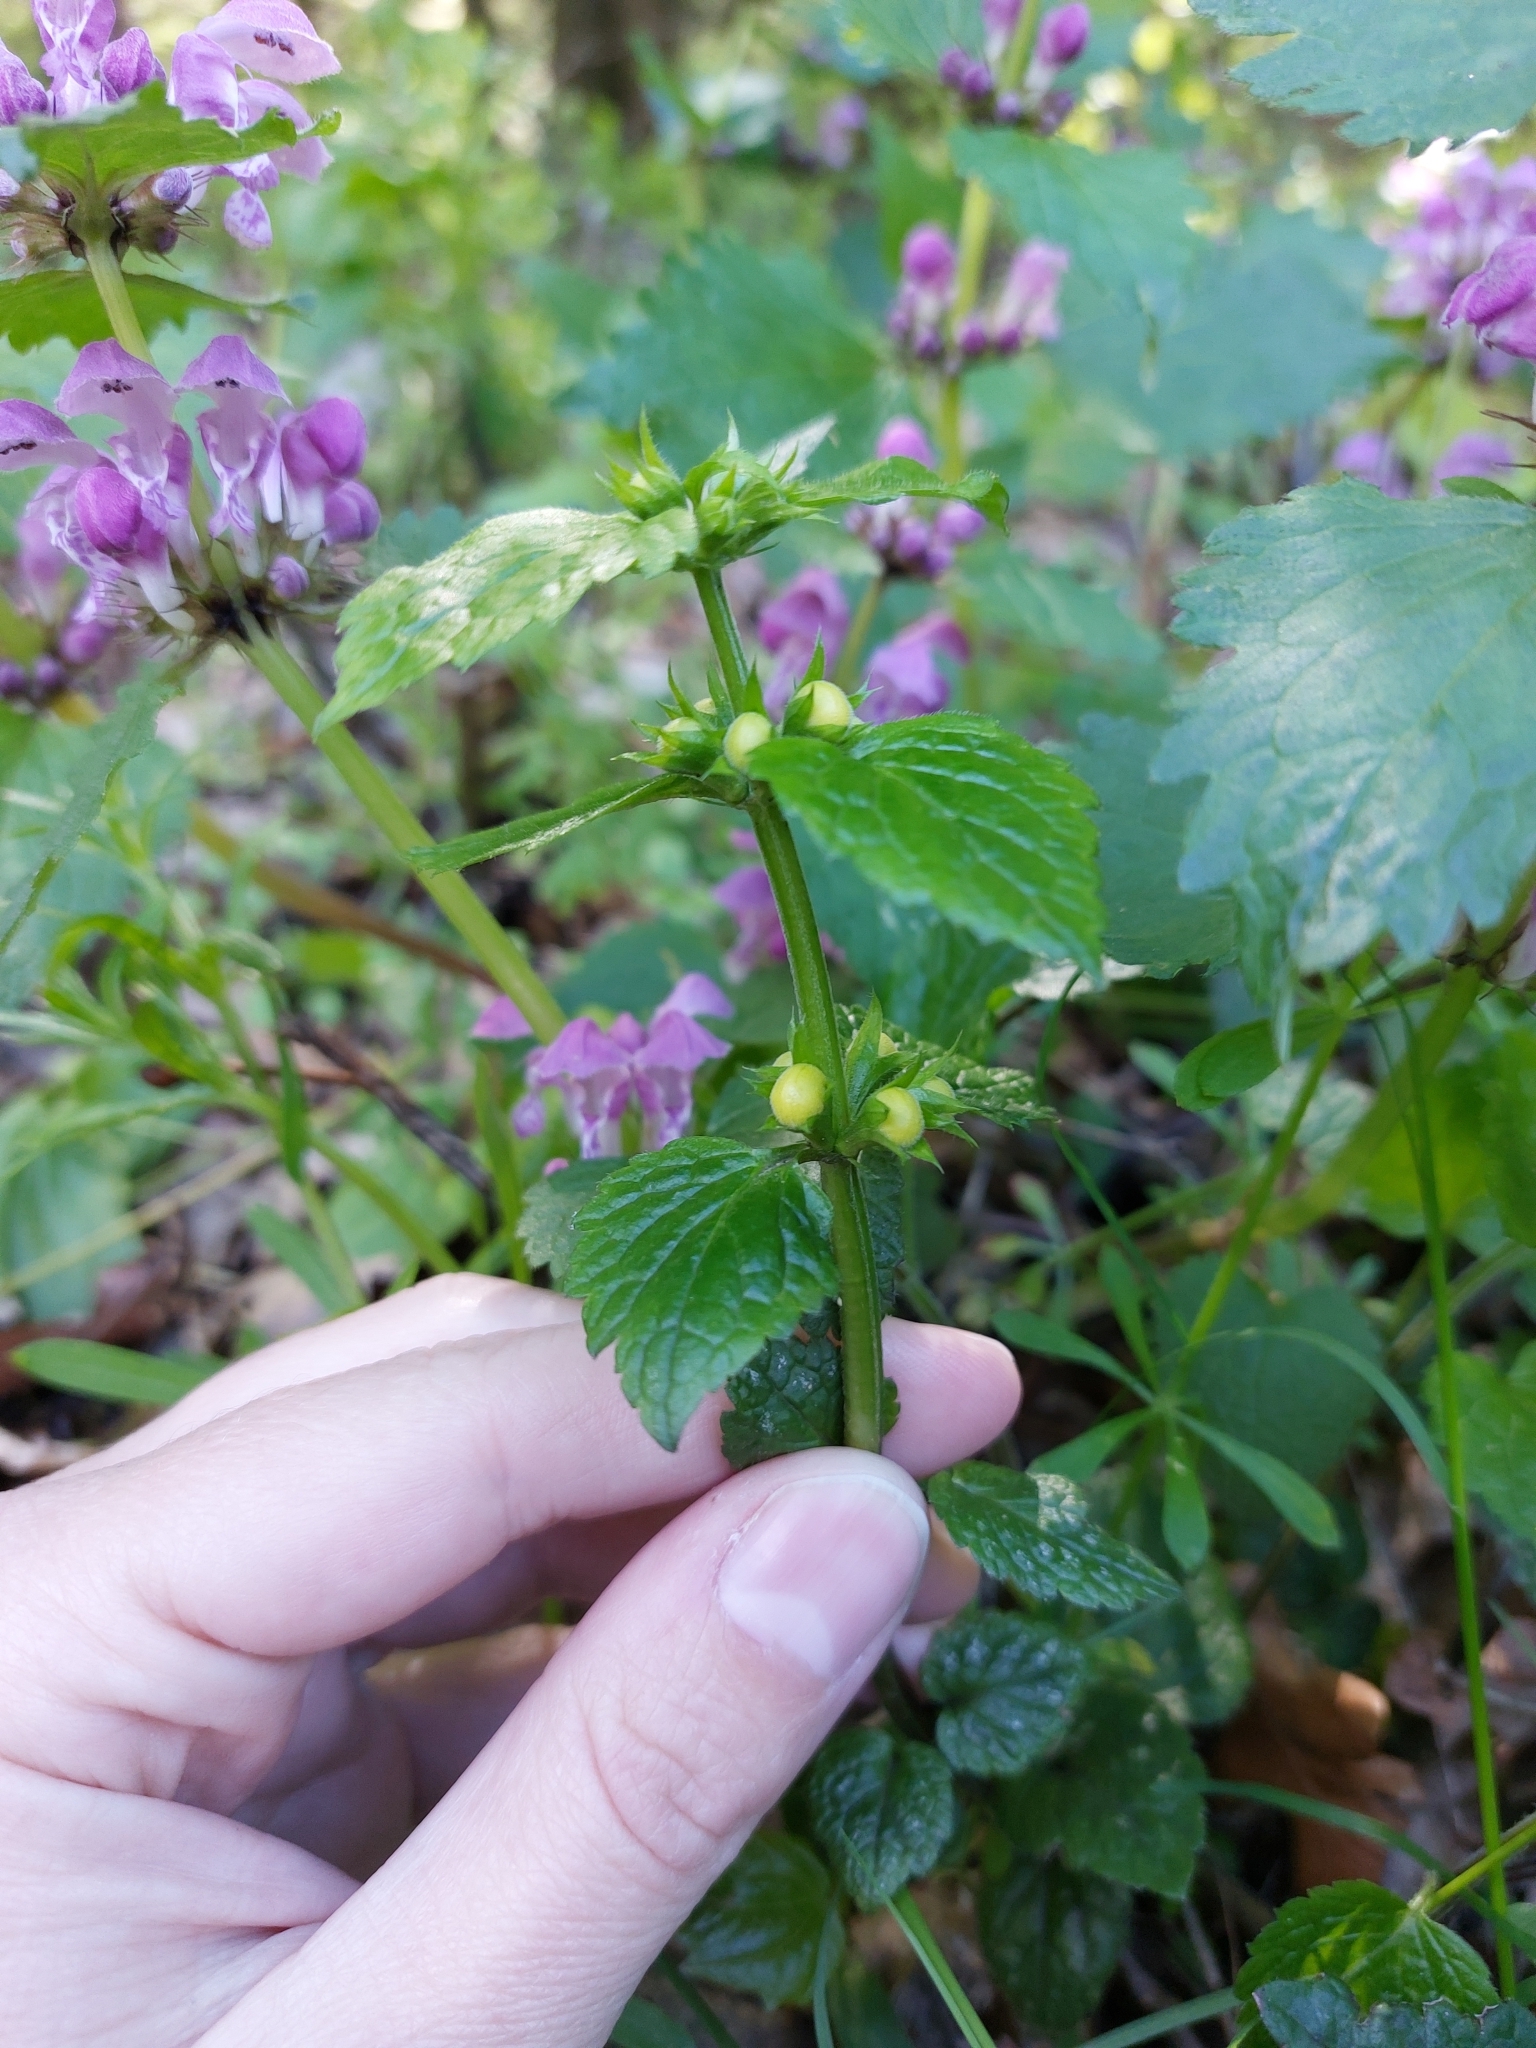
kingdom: Plantae
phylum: Tracheophyta
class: Magnoliopsida
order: Lamiales
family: Lamiaceae
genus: Lamium
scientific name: Lamium galeobdolon
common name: Yellow archangel
